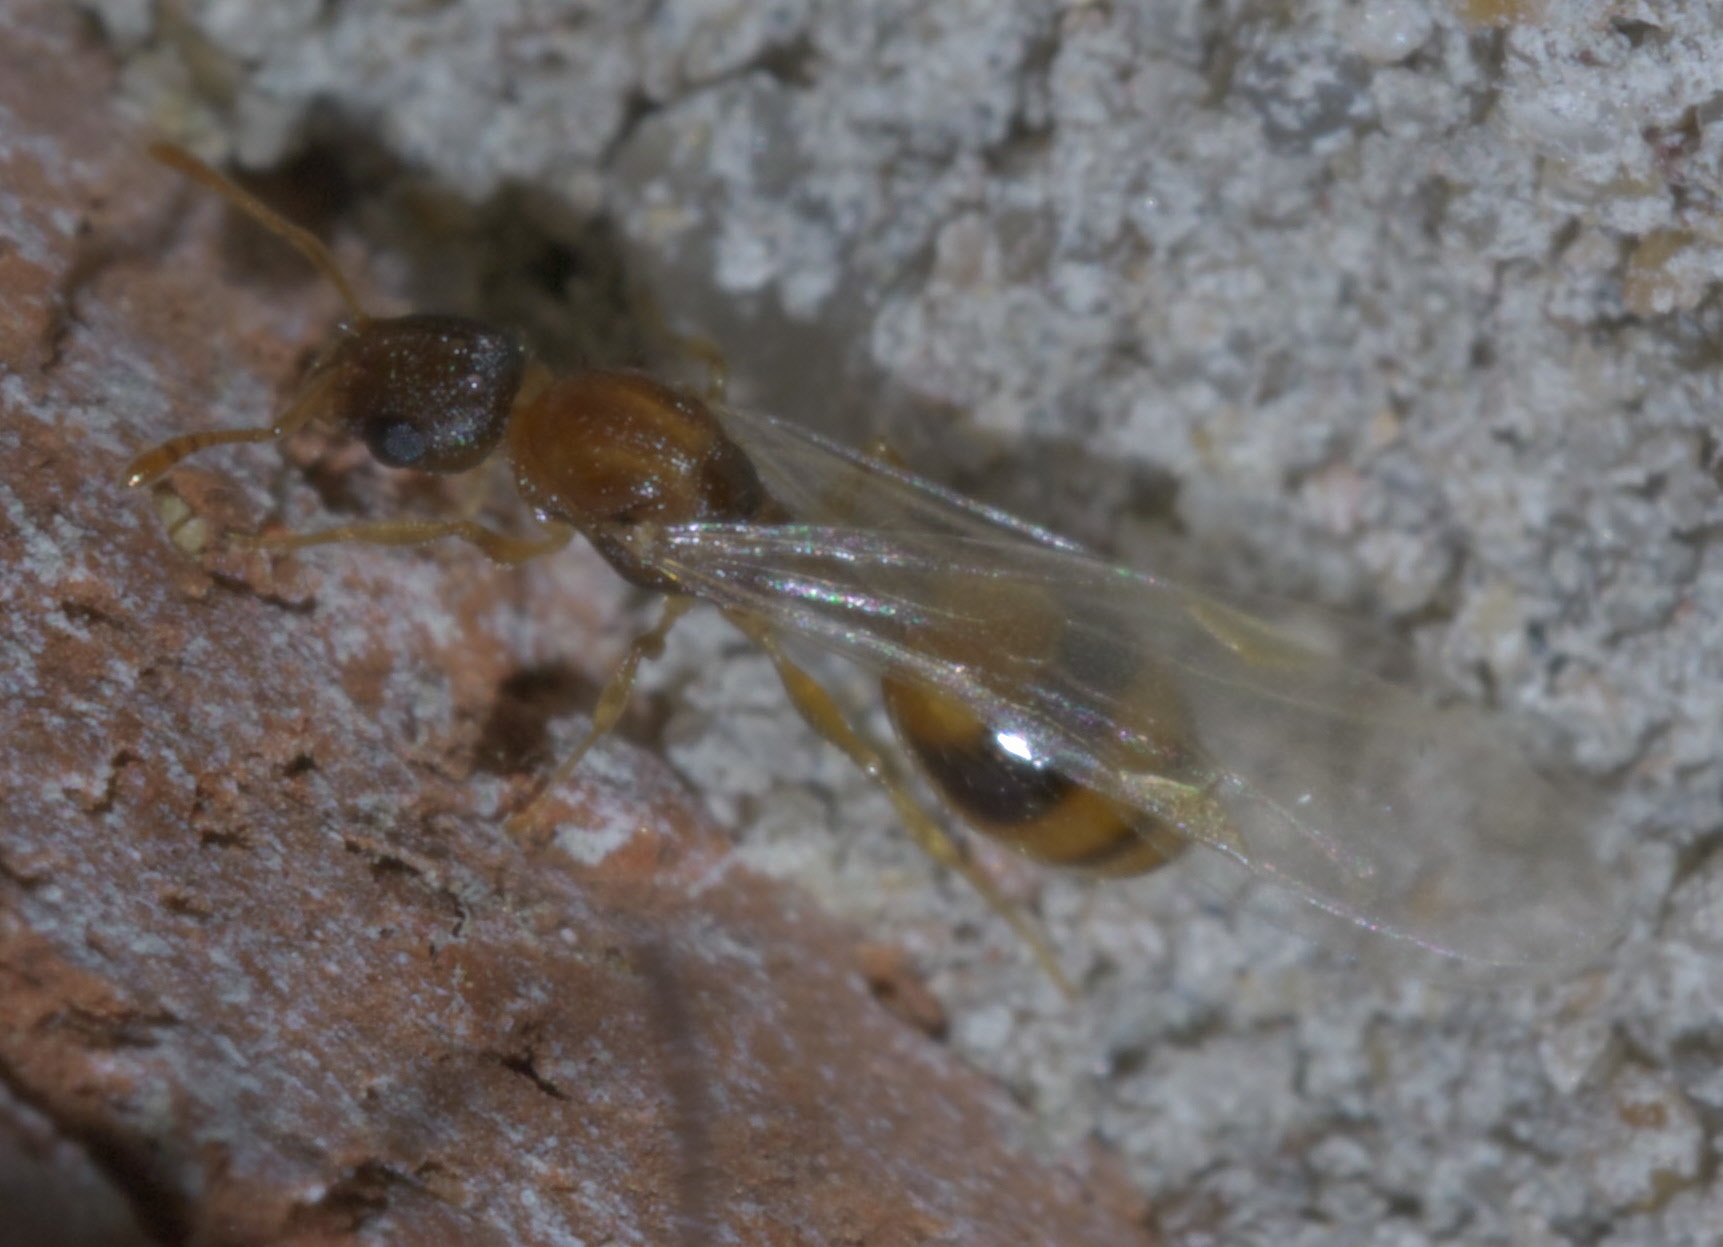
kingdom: Animalia
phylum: Arthropoda
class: Insecta
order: Hymenoptera
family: Formicidae
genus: Temnothorax
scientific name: Temnothorax curvispinosus
